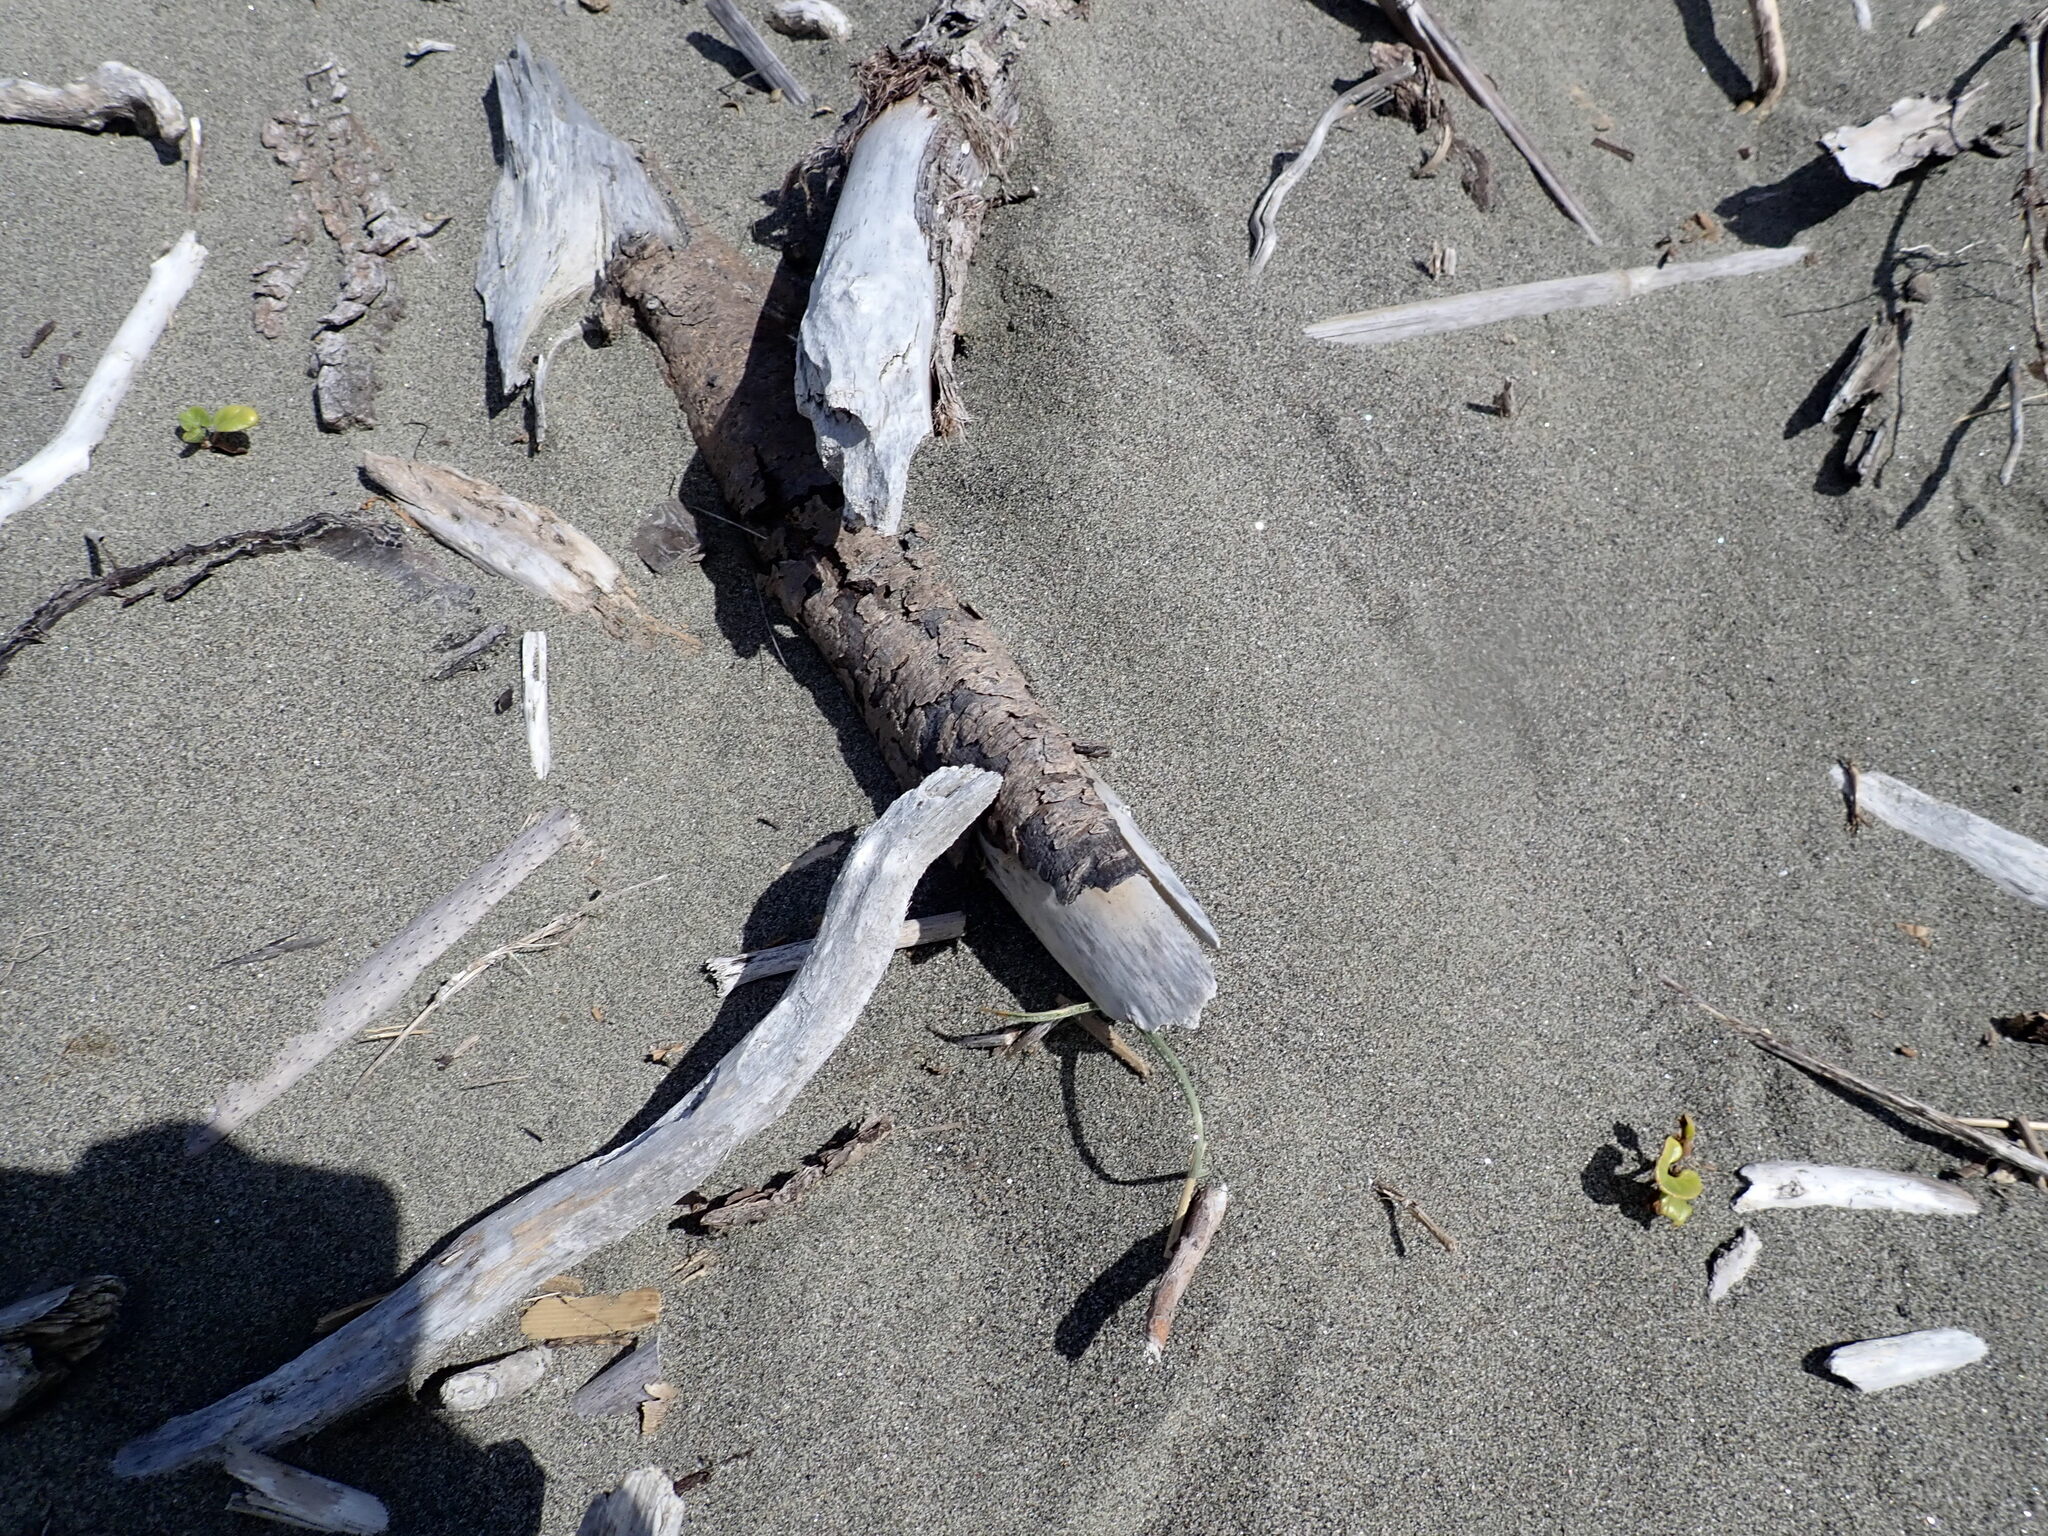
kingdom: Plantae
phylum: Tracheophyta
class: Magnoliopsida
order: Solanales
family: Convolvulaceae
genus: Calystegia
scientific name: Calystegia soldanella
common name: Sea bindweed
